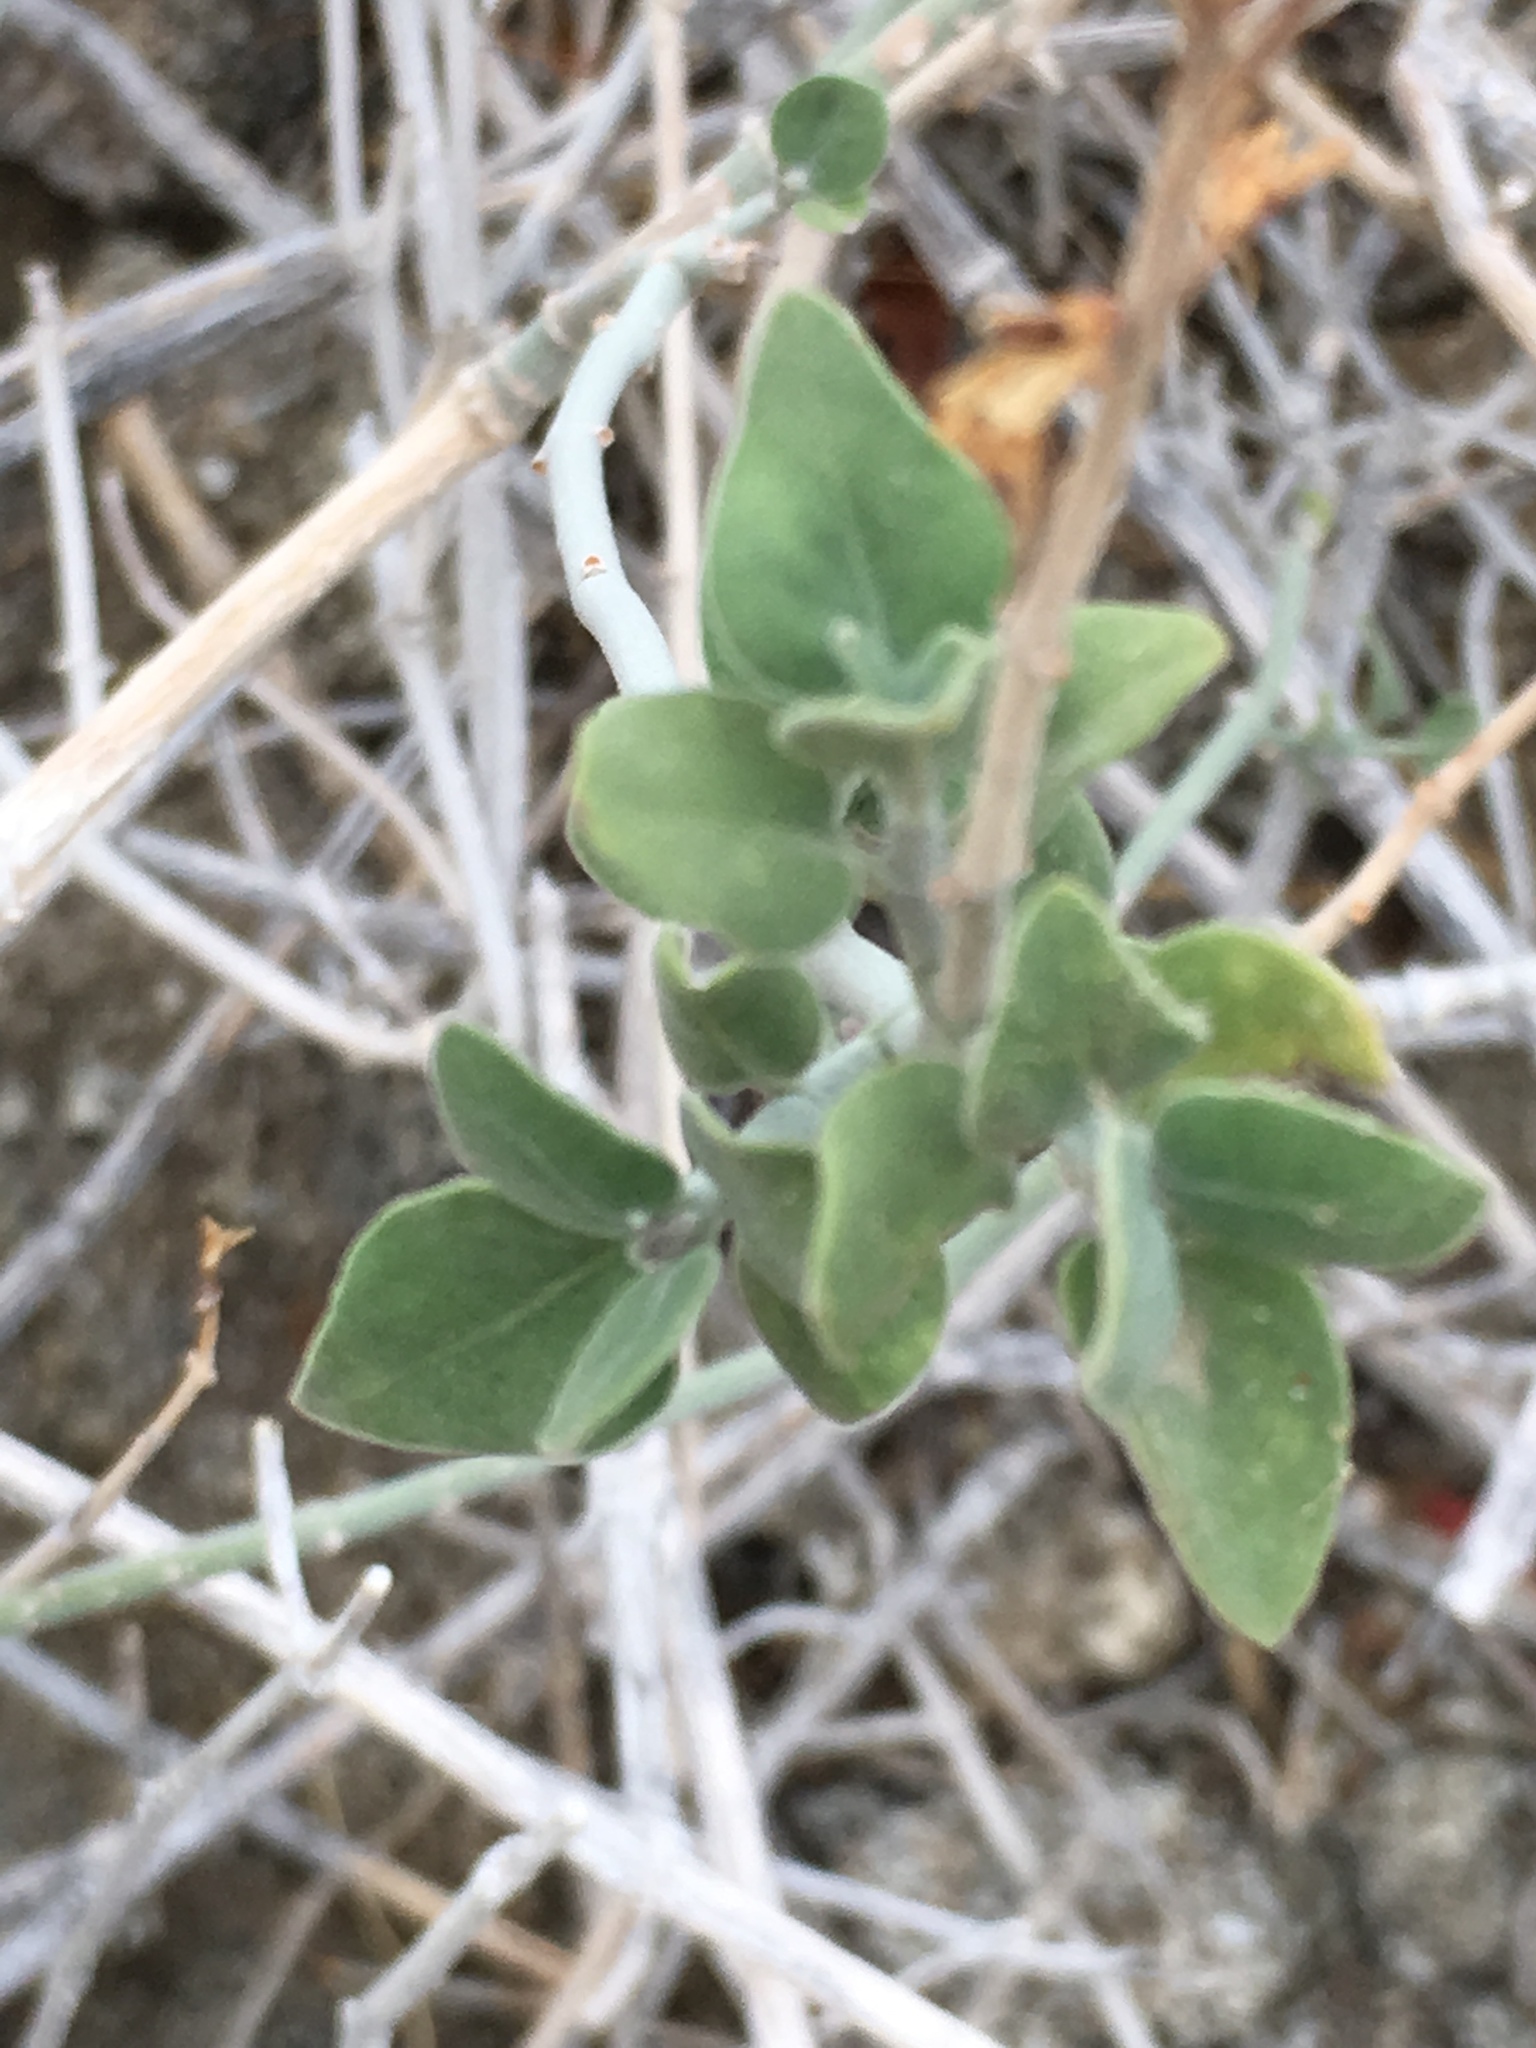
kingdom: Plantae
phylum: Tracheophyta
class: Magnoliopsida
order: Lamiales
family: Acanthaceae
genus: Justicia
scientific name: Justicia californica
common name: Chuparosa-honeysuckle
